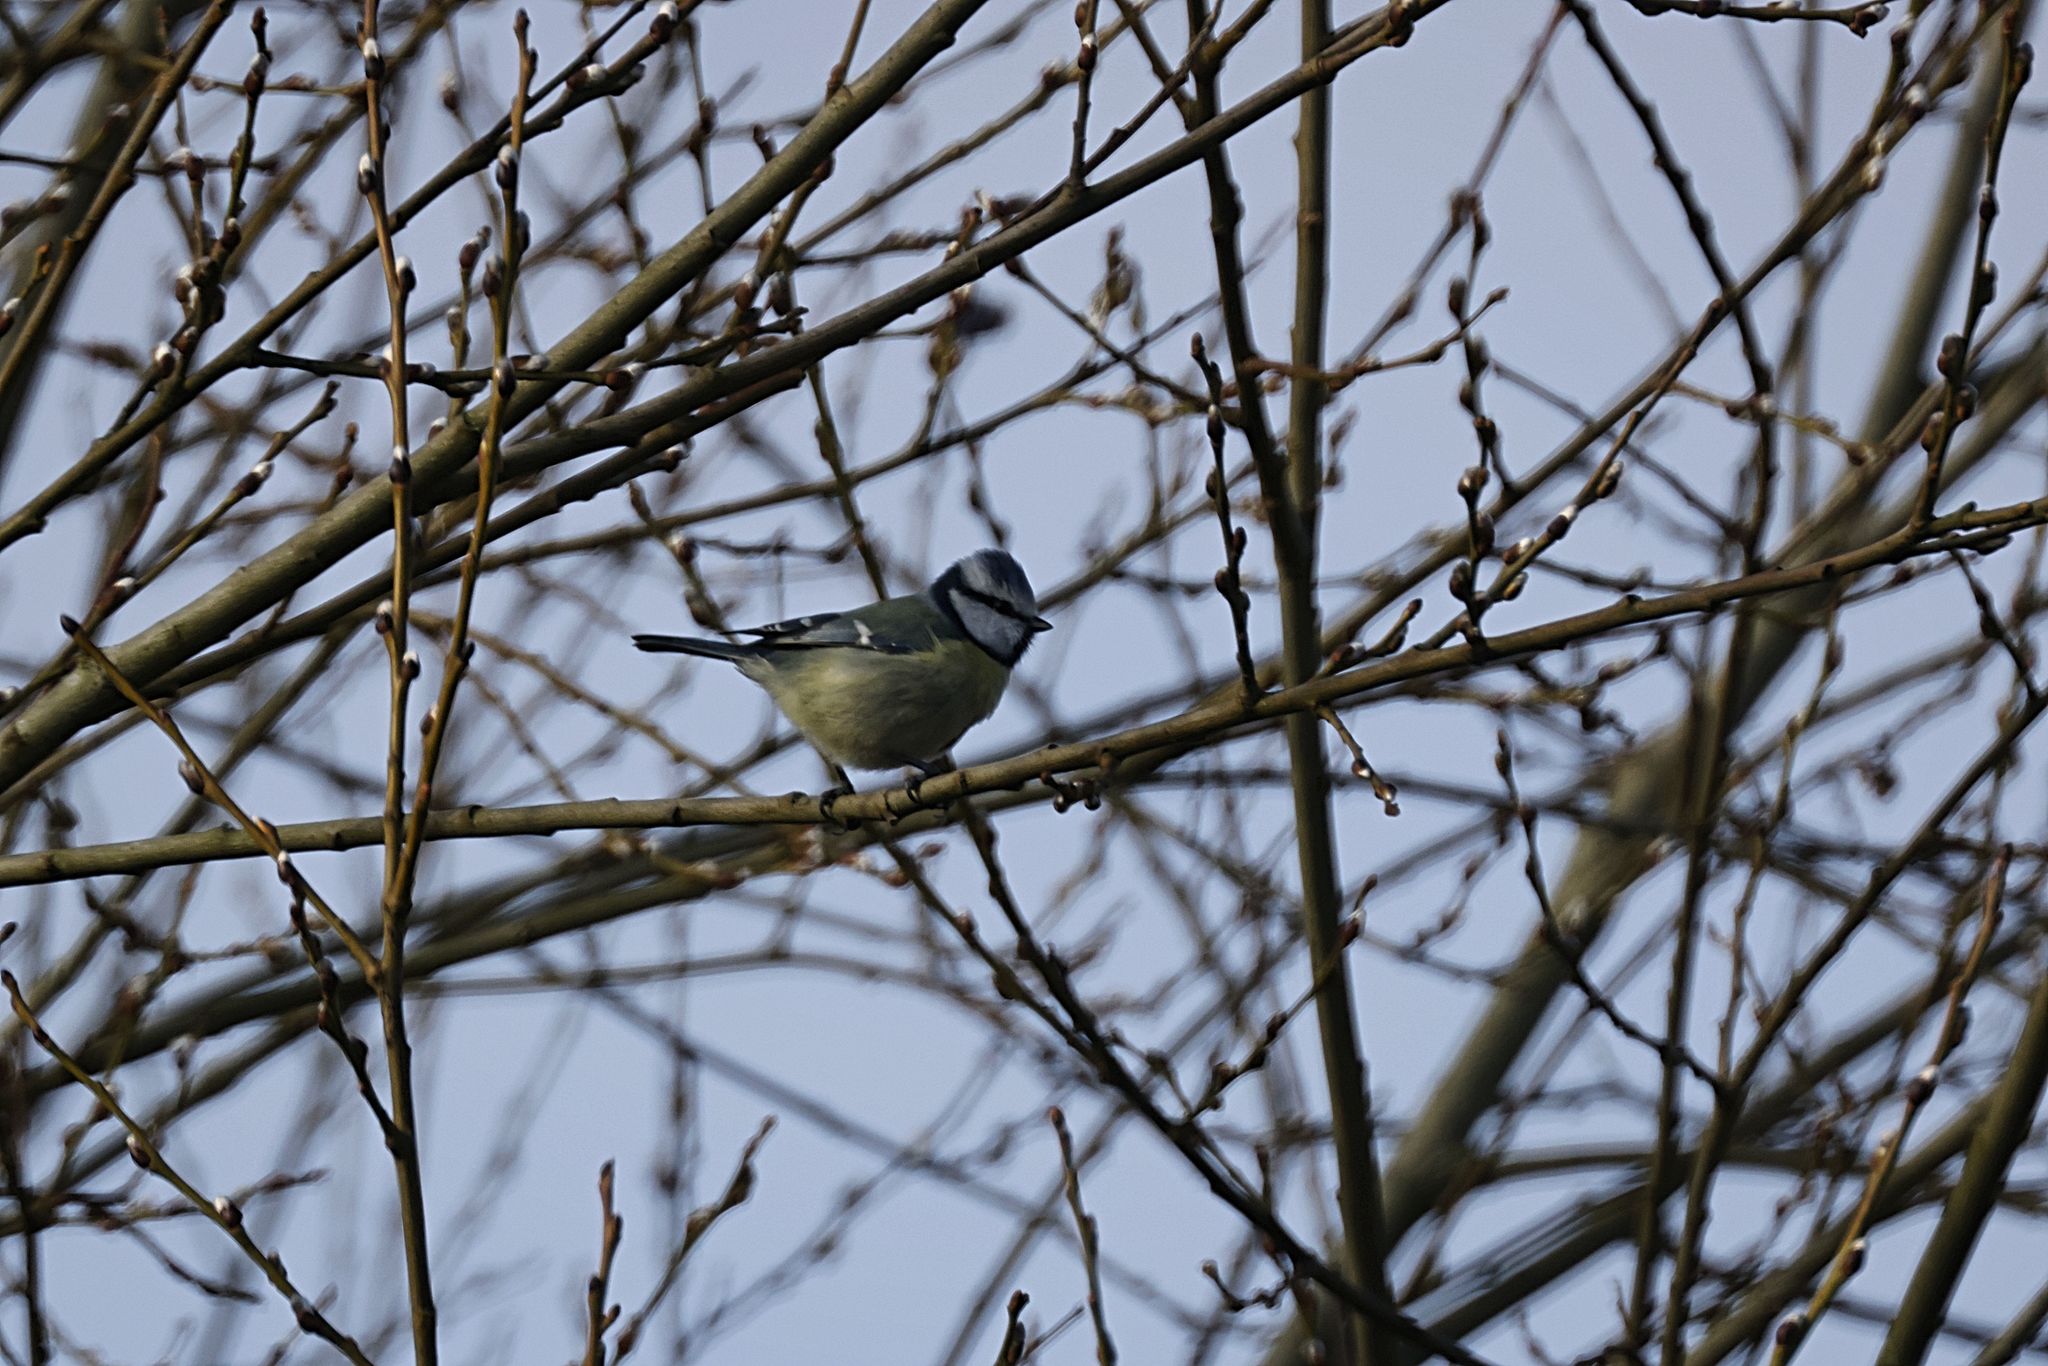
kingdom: Animalia
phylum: Chordata
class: Aves
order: Passeriformes
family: Paridae
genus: Cyanistes
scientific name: Cyanistes caeruleus
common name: Eurasian blue tit
